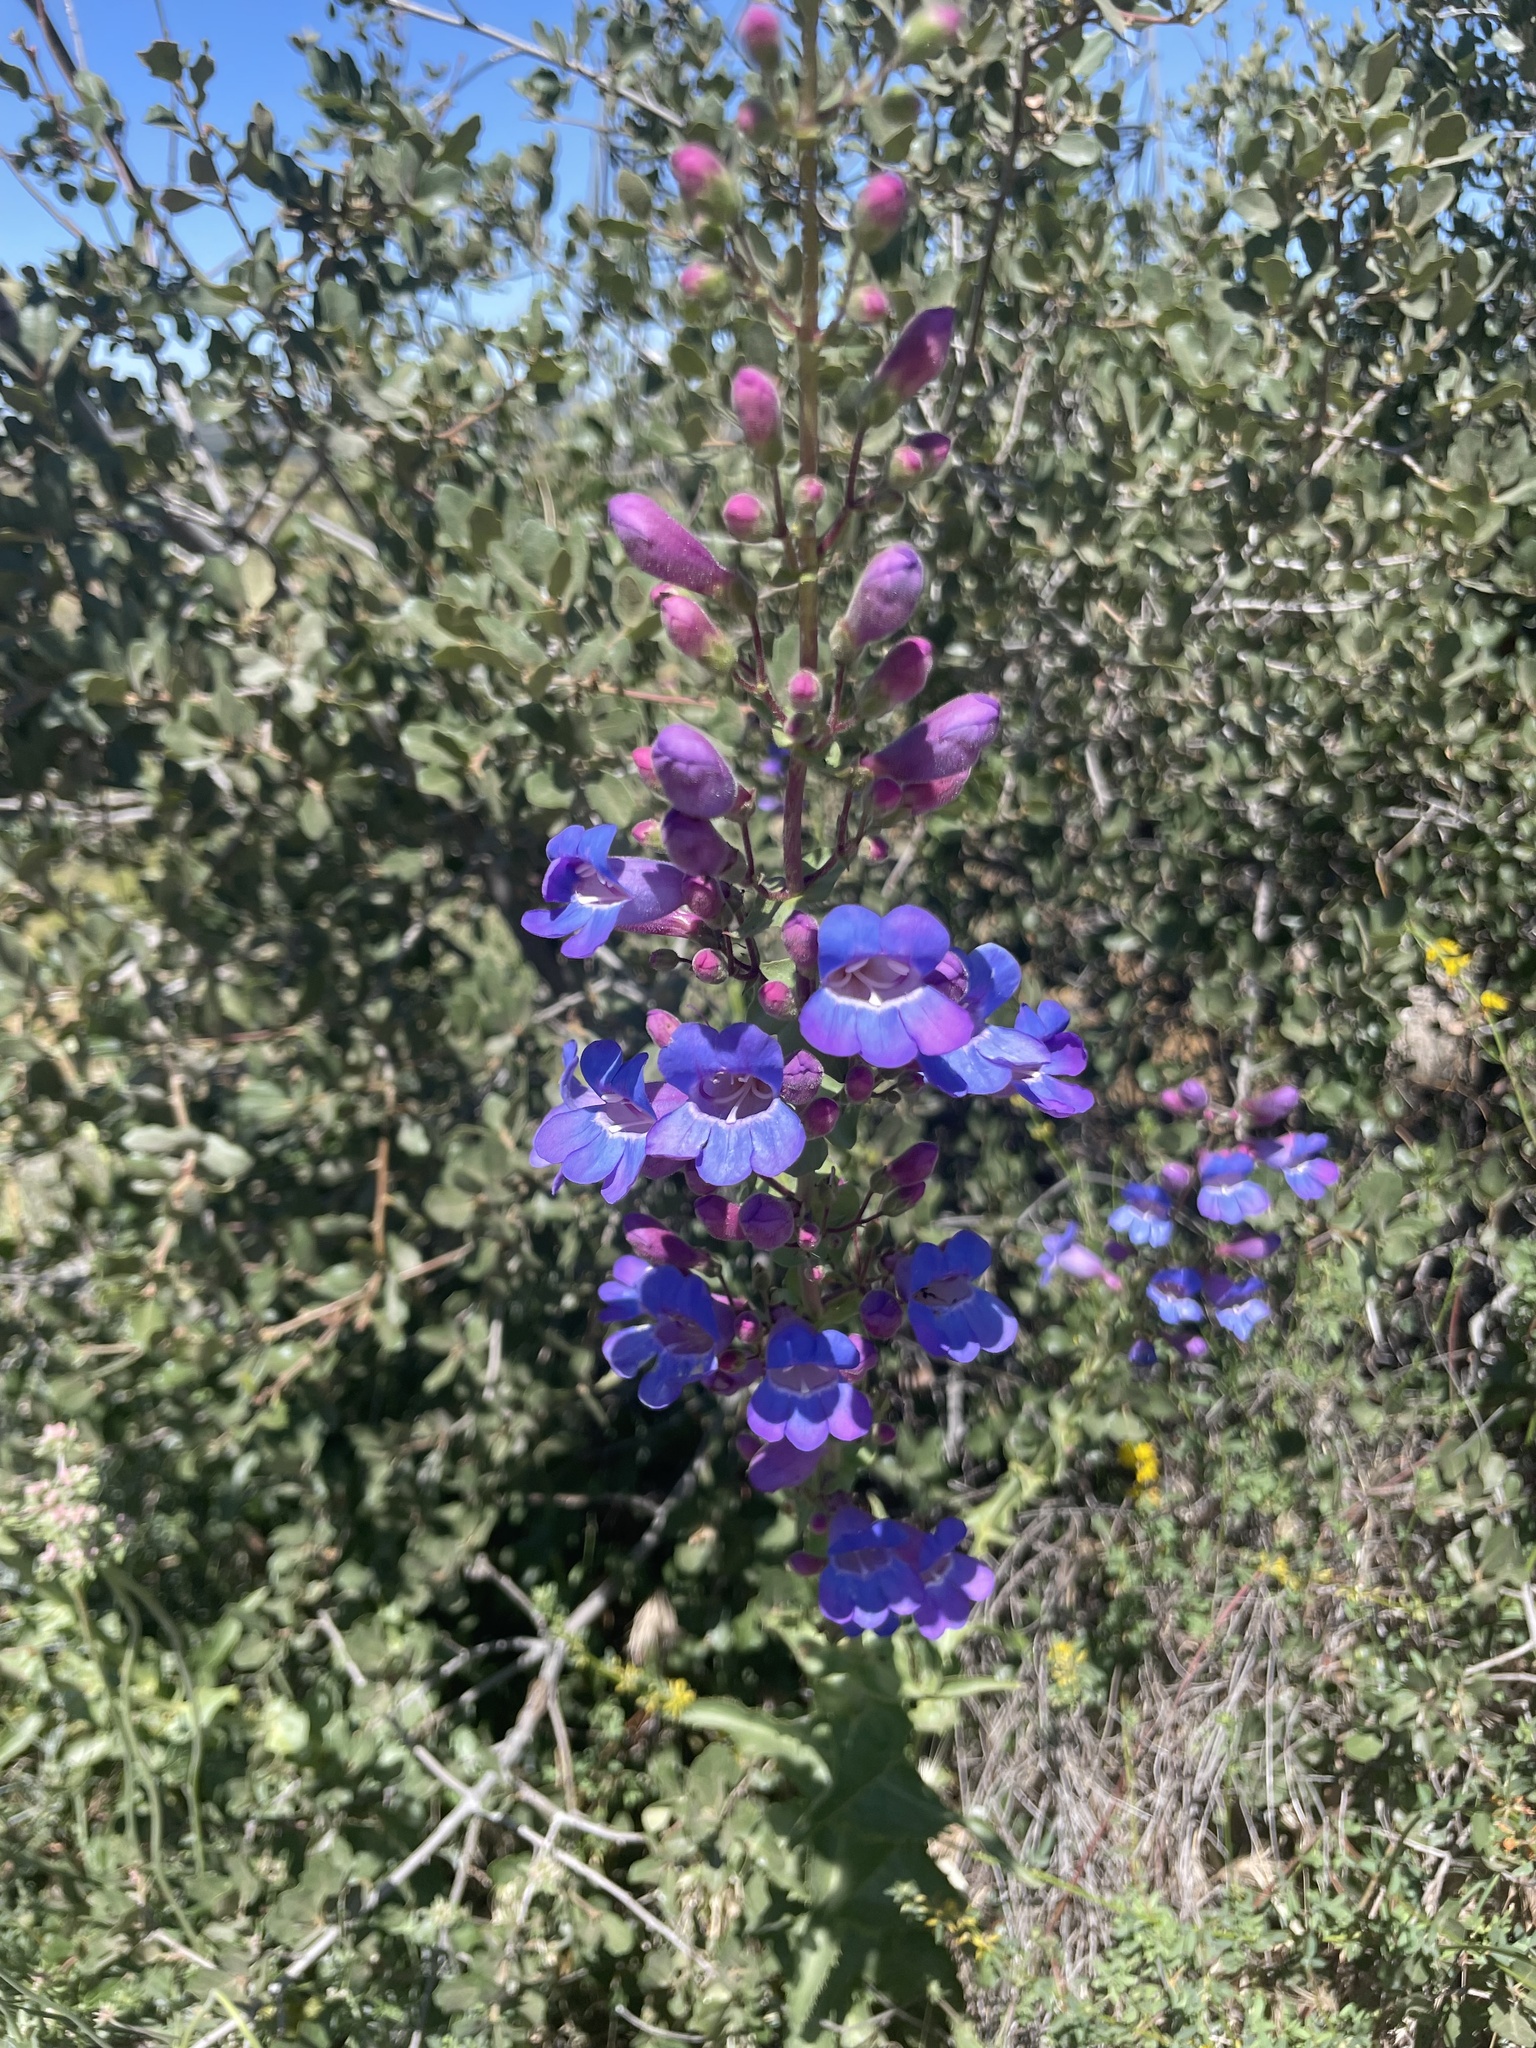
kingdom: Plantae
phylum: Tracheophyta
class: Magnoliopsida
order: Lamiales
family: Plantaginaceae
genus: Penstemon
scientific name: Penstemon spectabilis
